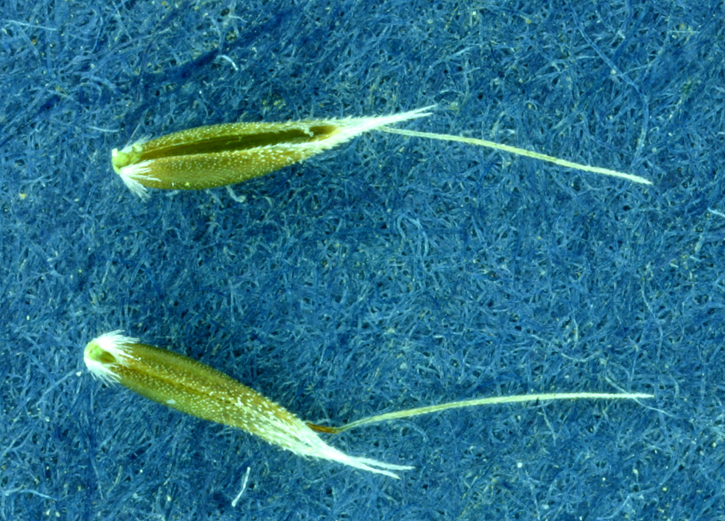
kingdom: Plantae
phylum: Tracheophyta
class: Liliopsida
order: Poales
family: Poaceae
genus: Aira
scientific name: Aira caryophyllea
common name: Silver hairgrass
